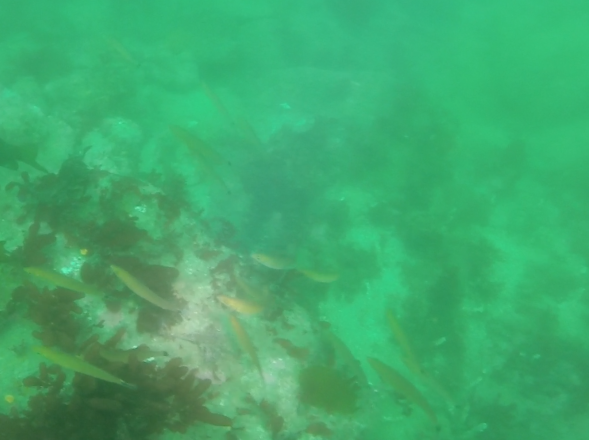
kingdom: Animalia
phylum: Chordata
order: Perciformes
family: Labridae
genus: Oxyjulis
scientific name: Oxyjulis californica
